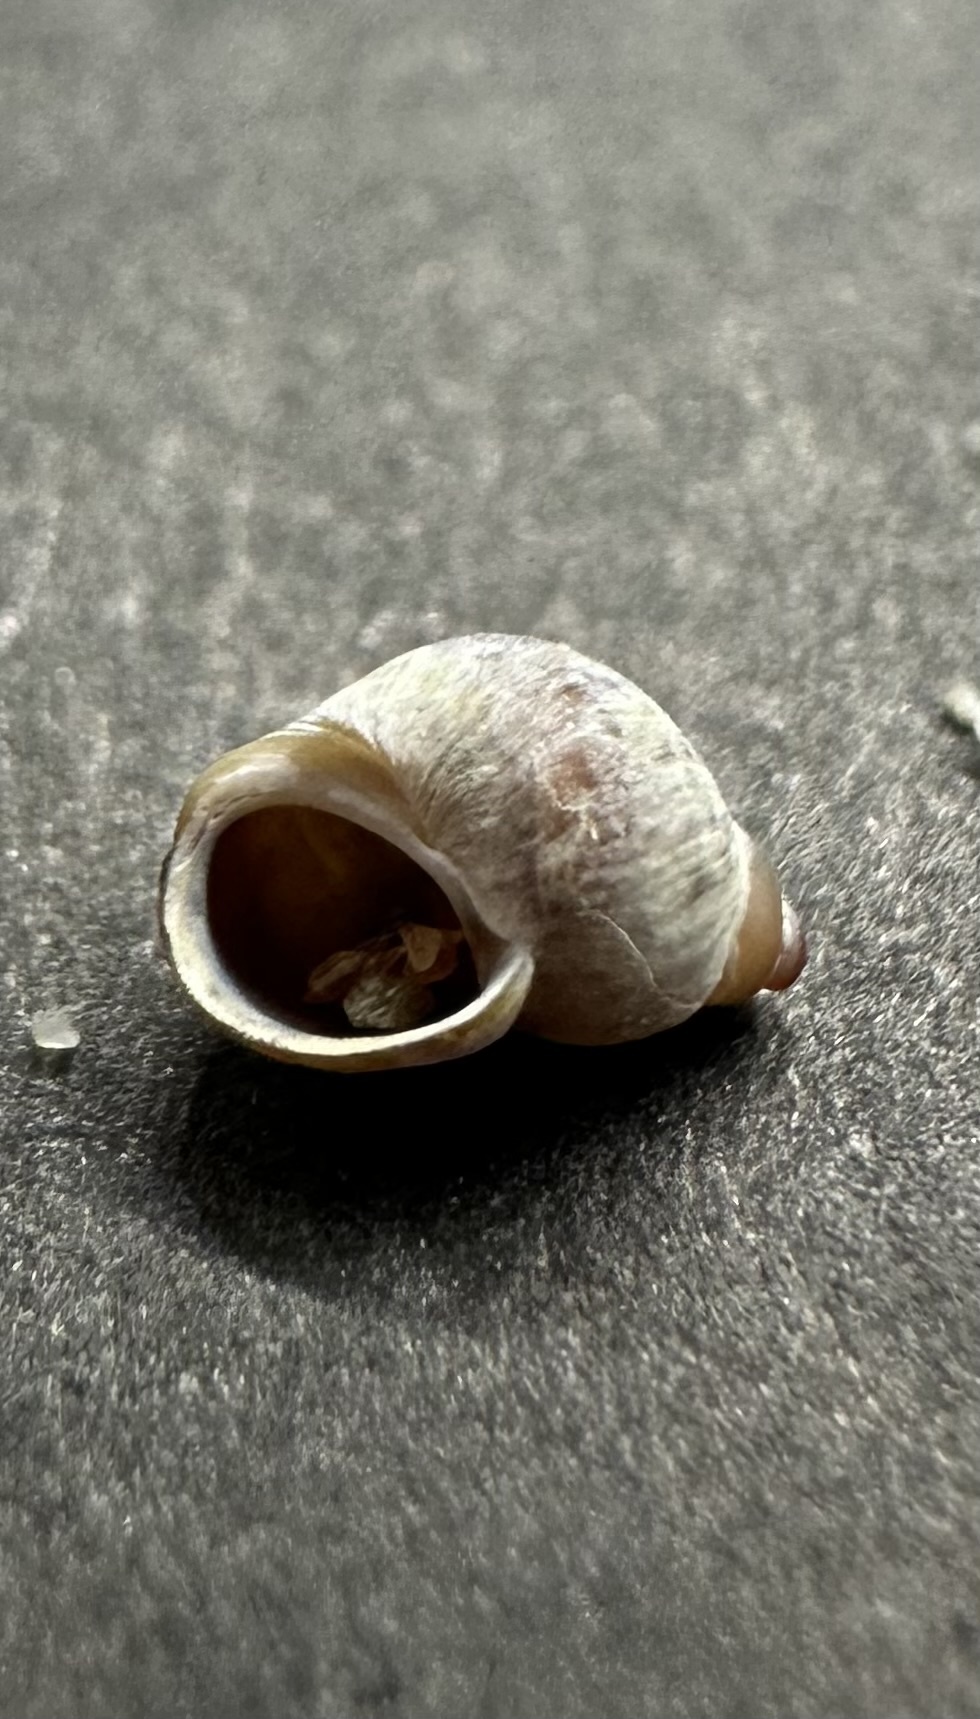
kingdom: Animalia
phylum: Mollusca
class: Gastropoda
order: Littorinimorpha
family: Littorinidae
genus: Lacuna
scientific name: Lacuna vincta
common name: Banded chink shell
